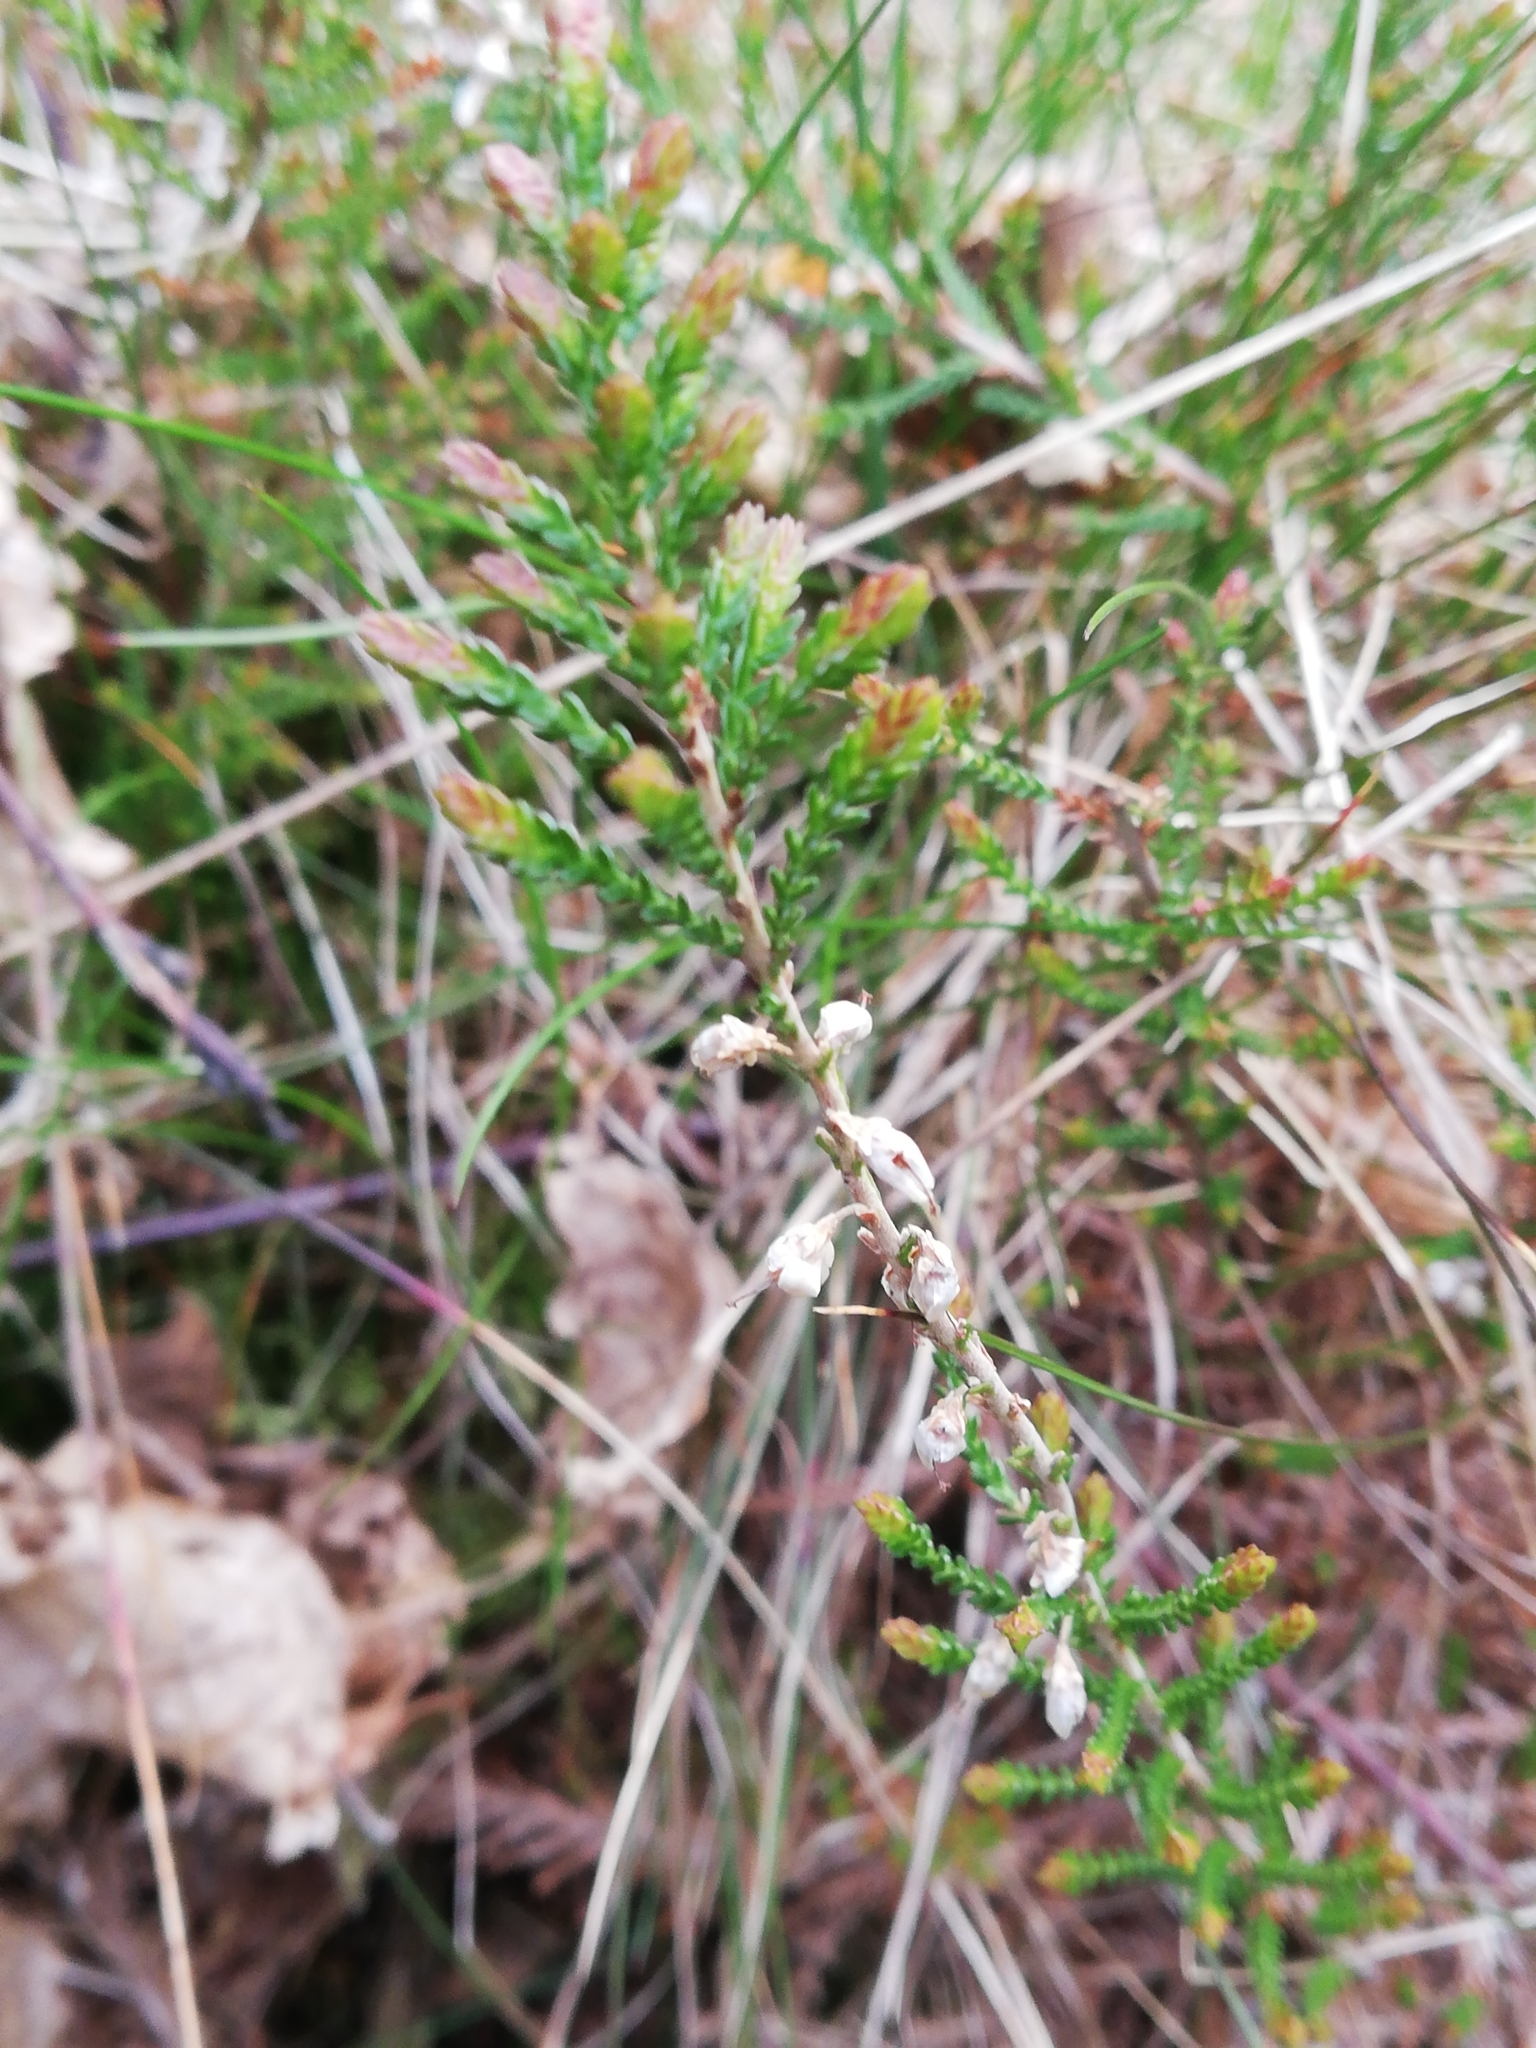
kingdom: Plantae
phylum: Tracheophyta
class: Magnoliopsida
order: Ericales
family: Ericaceae
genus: Calluna
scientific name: Calluna vulgaris
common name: Heather
